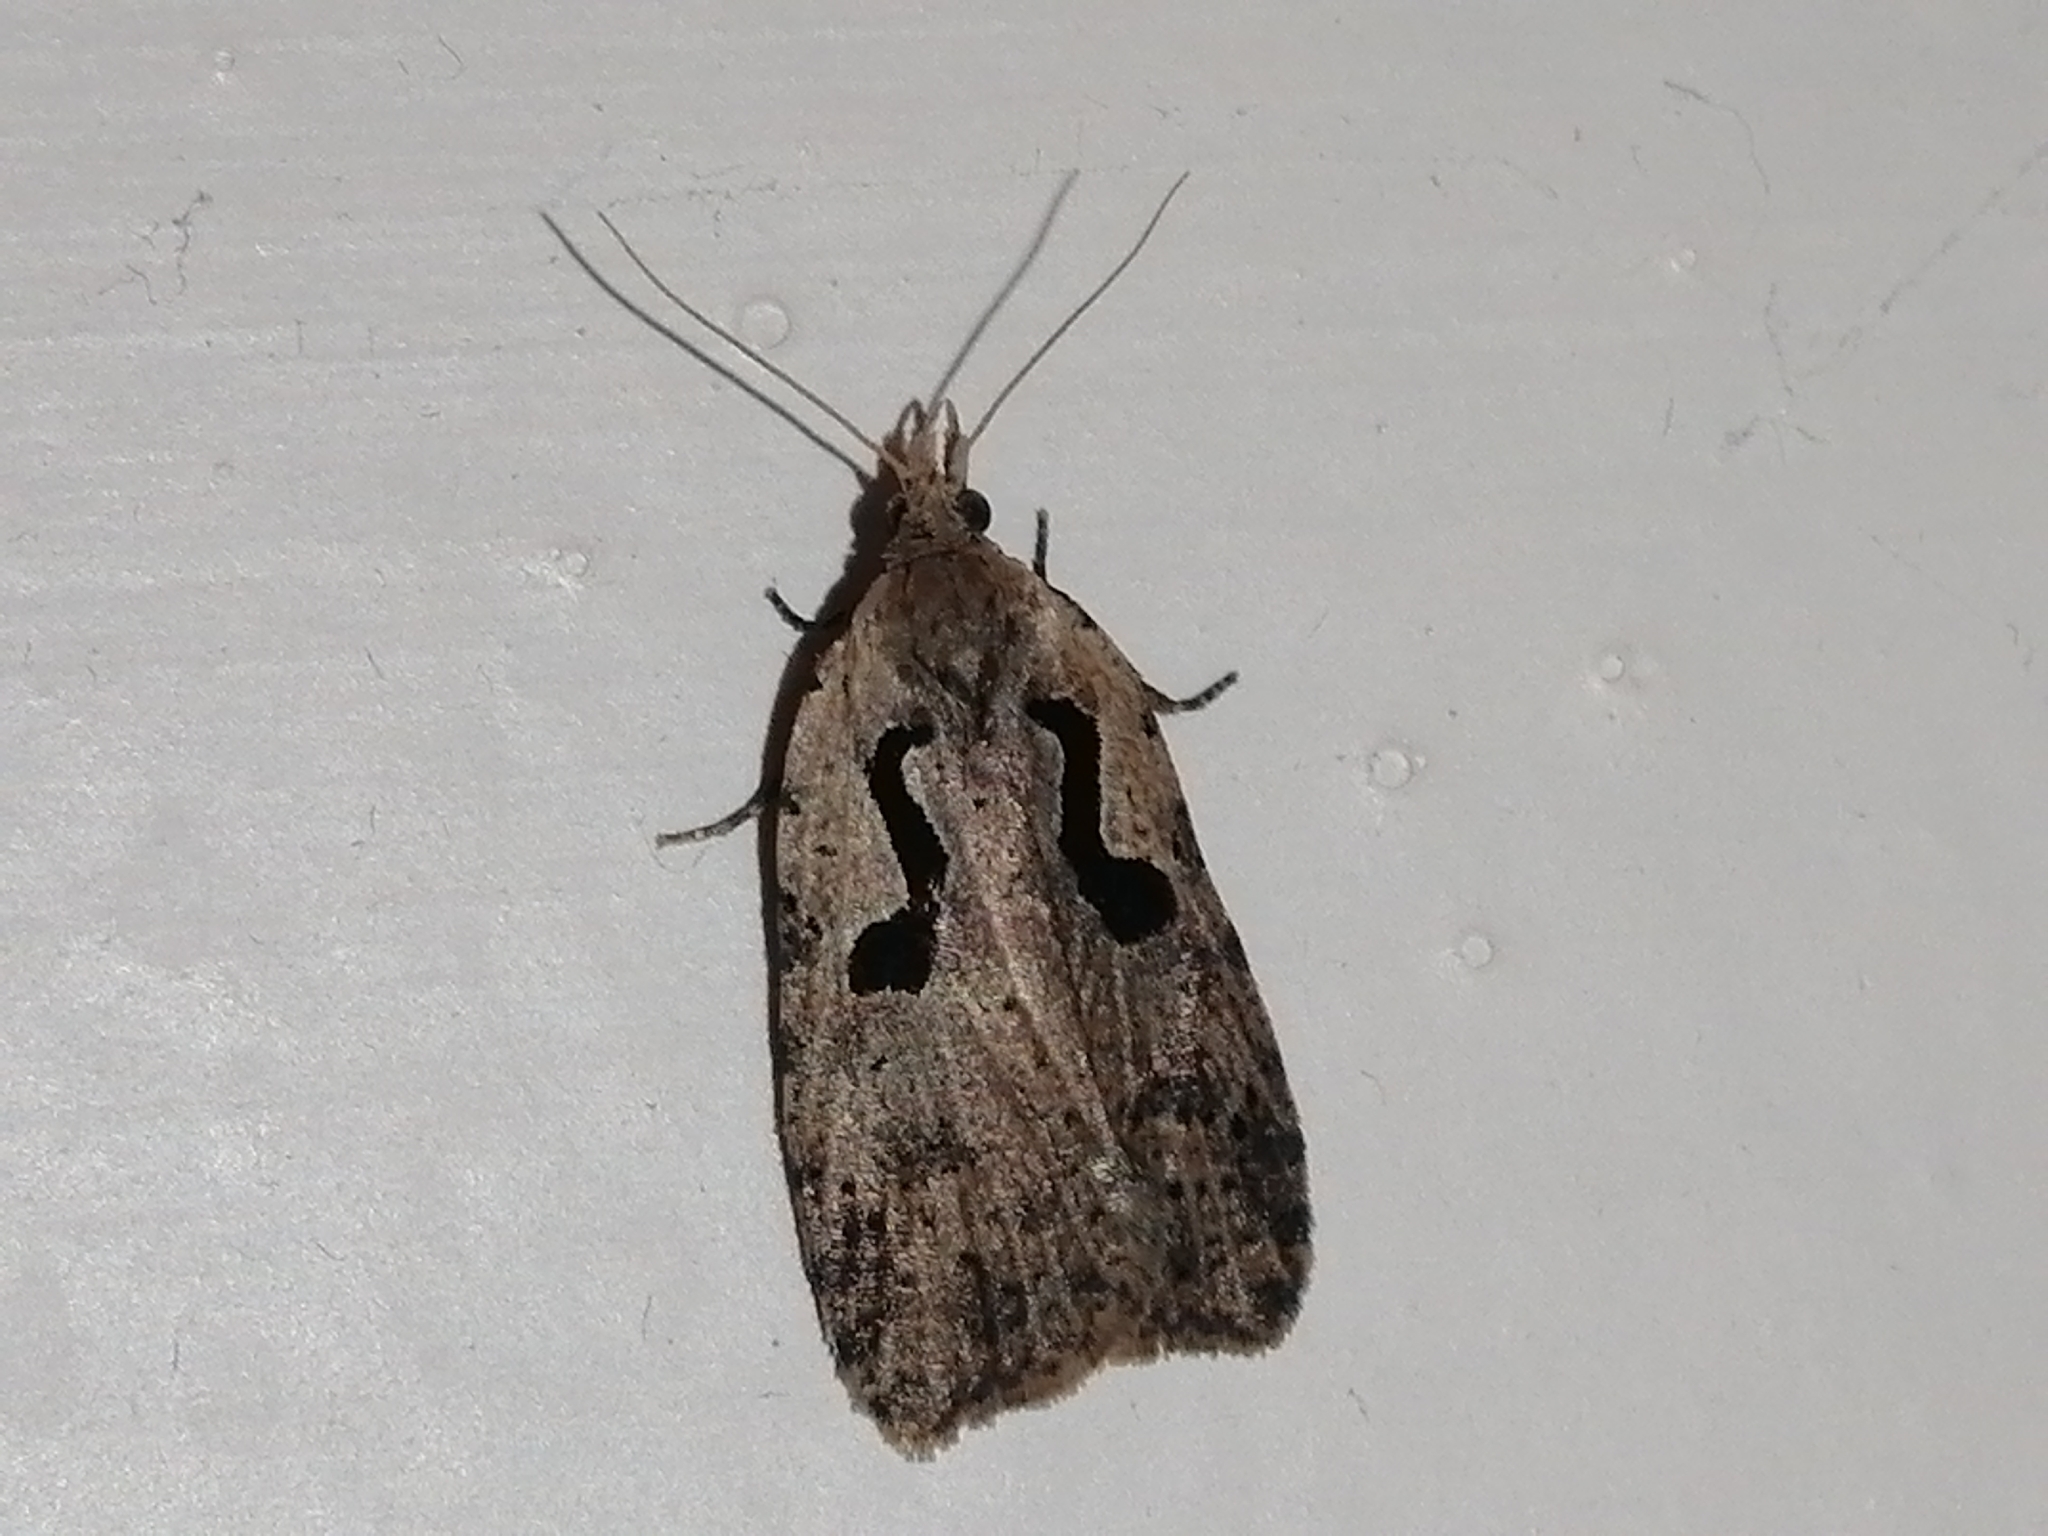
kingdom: Animalia
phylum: Arthropoda
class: Insecta
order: Lepidoptera
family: Tortricidae
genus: Cnephasia
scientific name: Cnephasia jactatana
